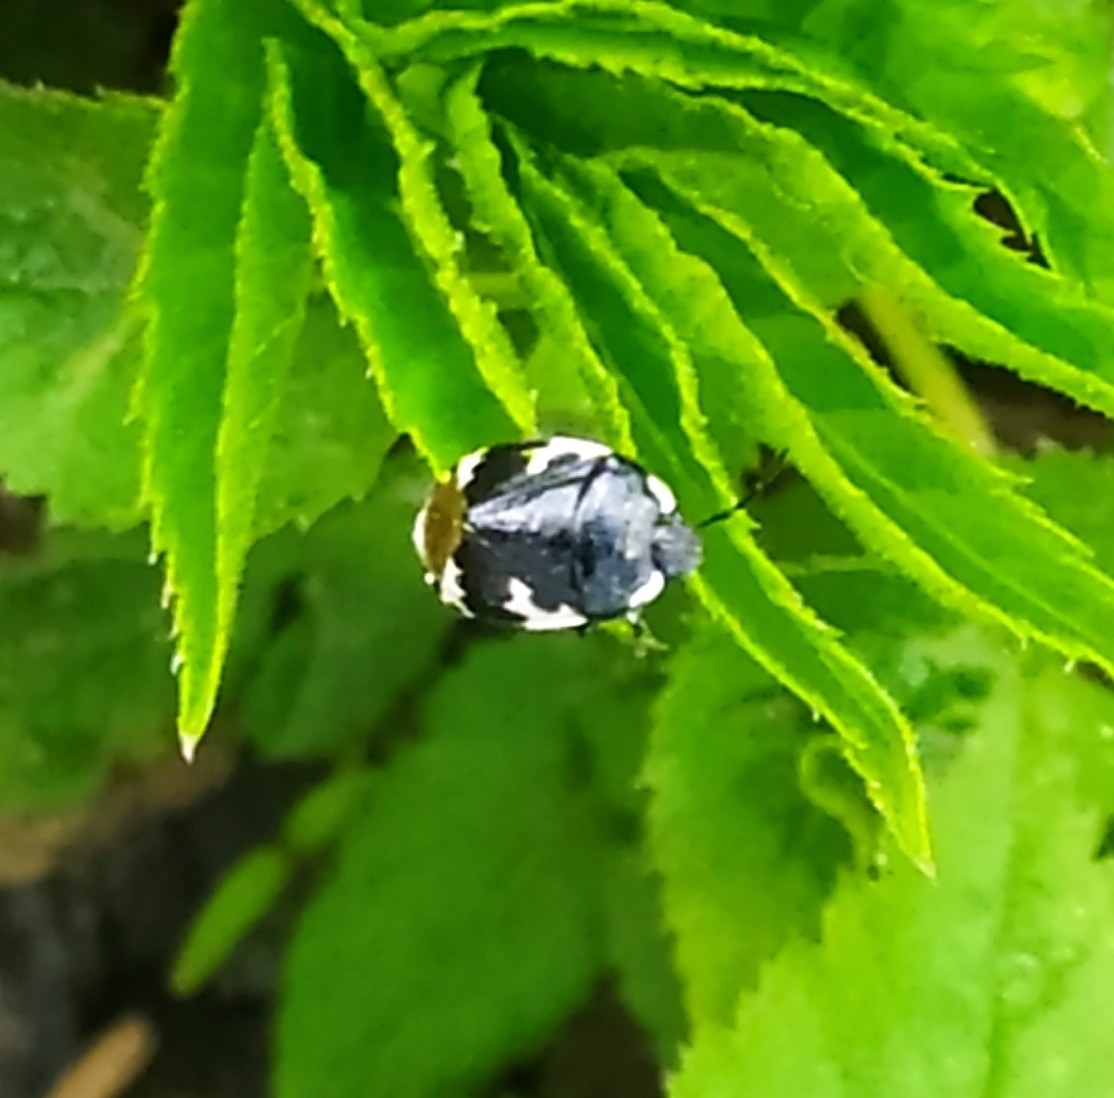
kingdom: Animalia
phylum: Arthropoda
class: Insecta
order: Hemiptera
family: Cydnidae
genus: Tritomegas
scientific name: Tritomegas bicolor
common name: Pied shieldbug
